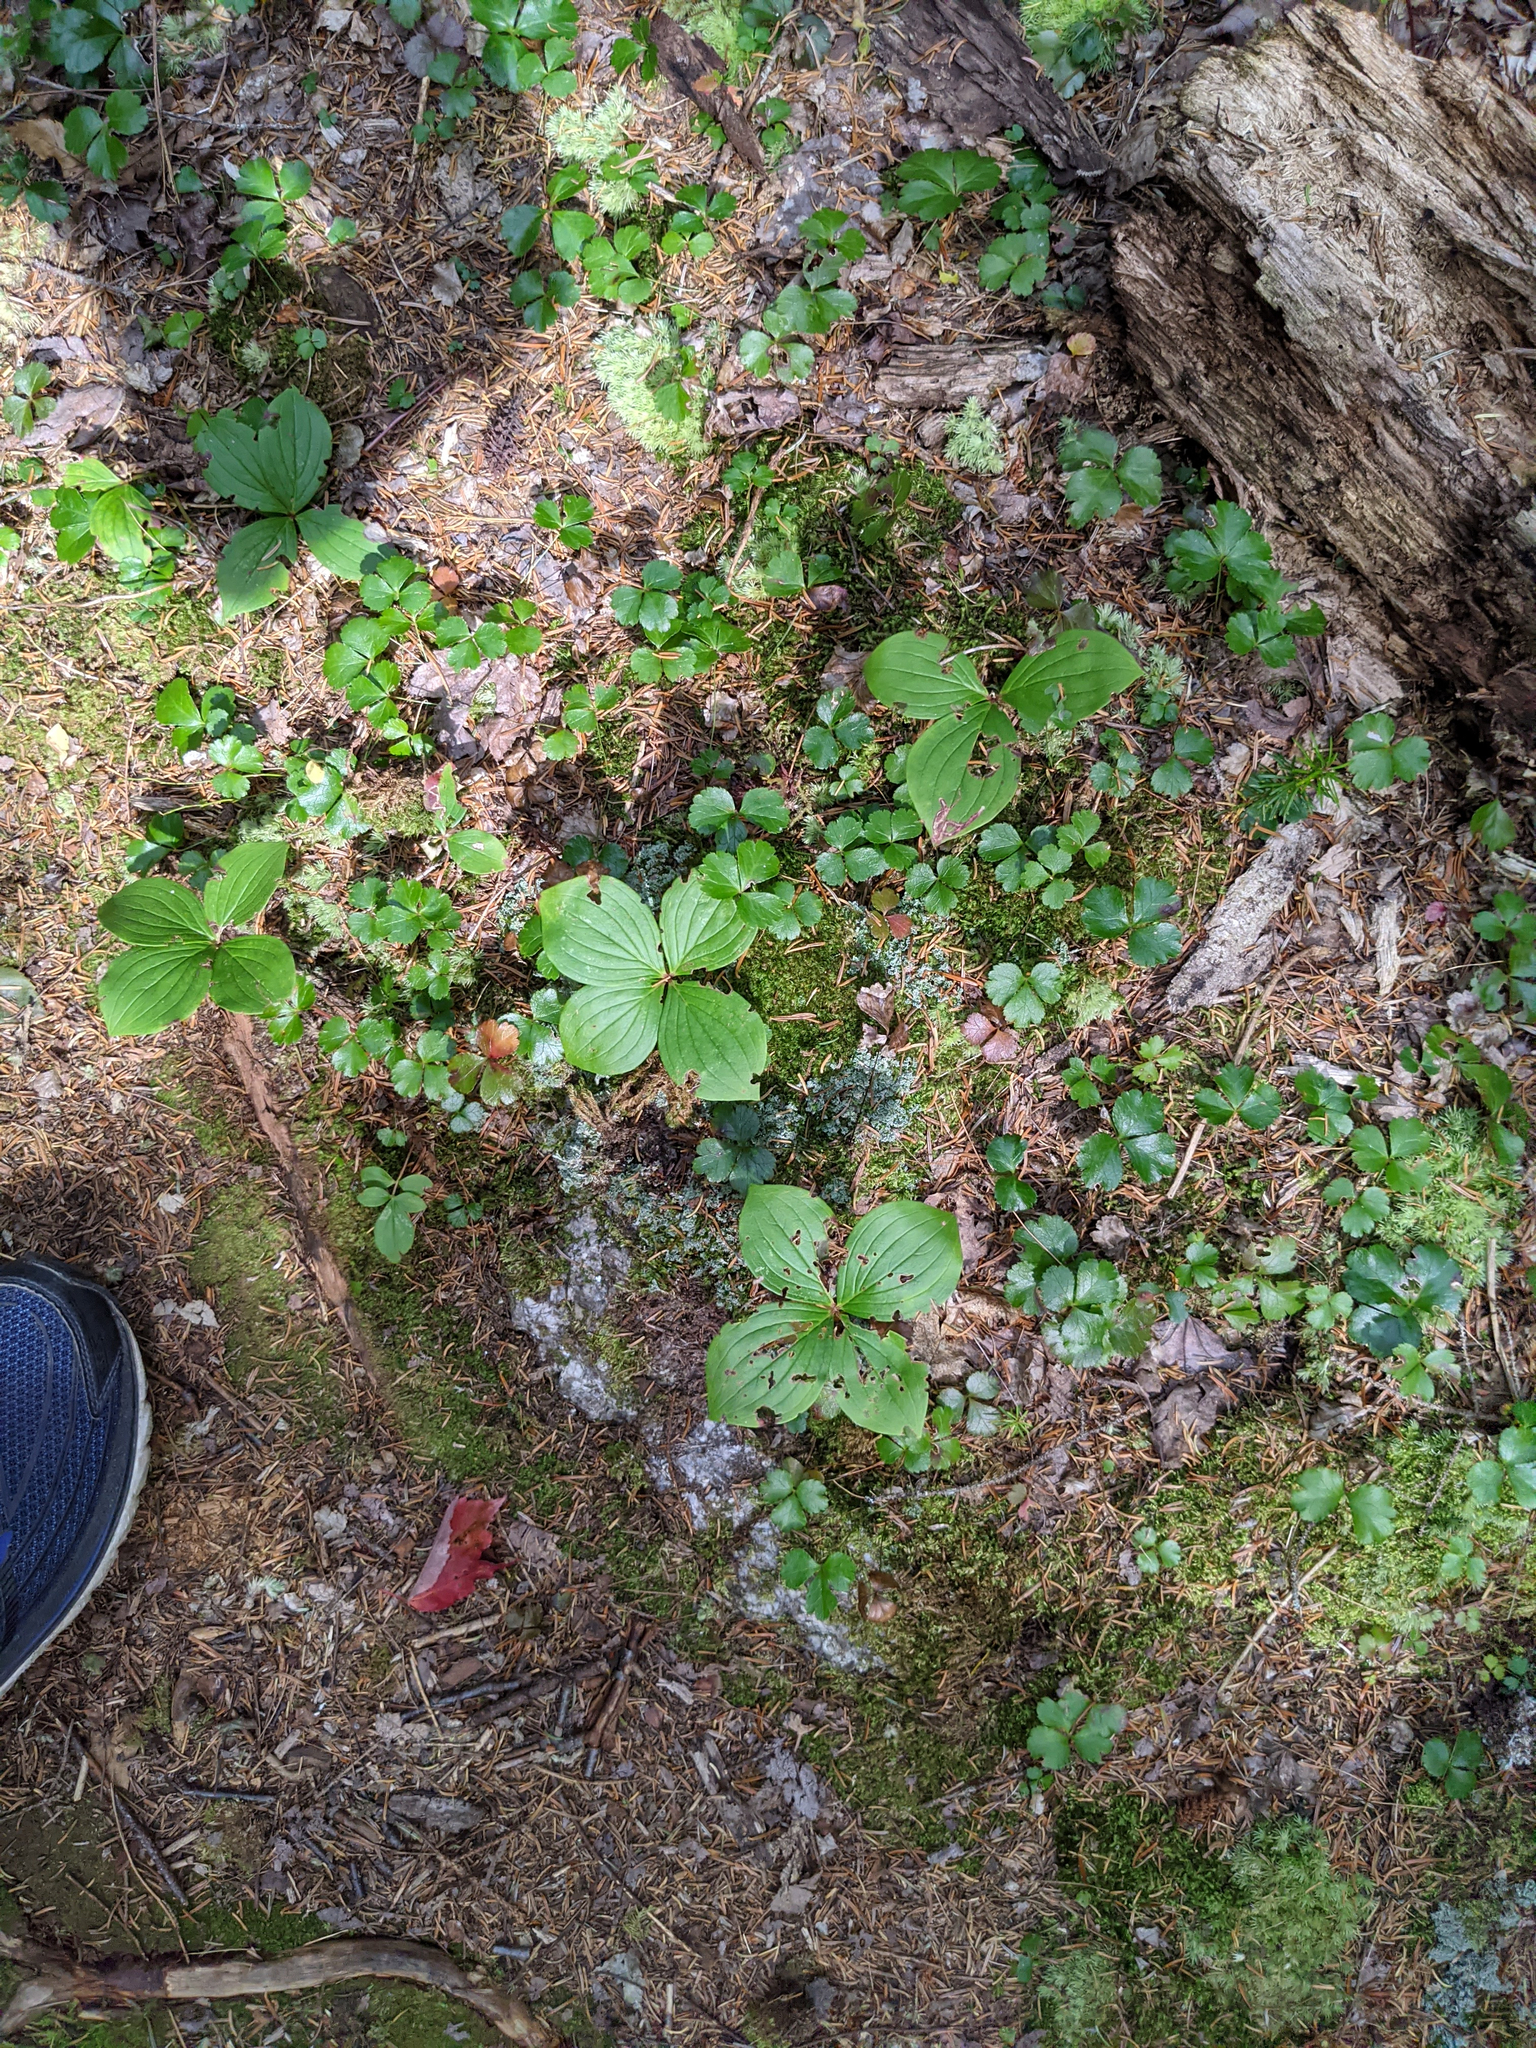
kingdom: Plantae
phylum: Tracheophyta
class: Magnoliopsida
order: Cornales
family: Cornaceae
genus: Cornus
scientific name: Cornus canadensis
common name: Creeping dogwood
